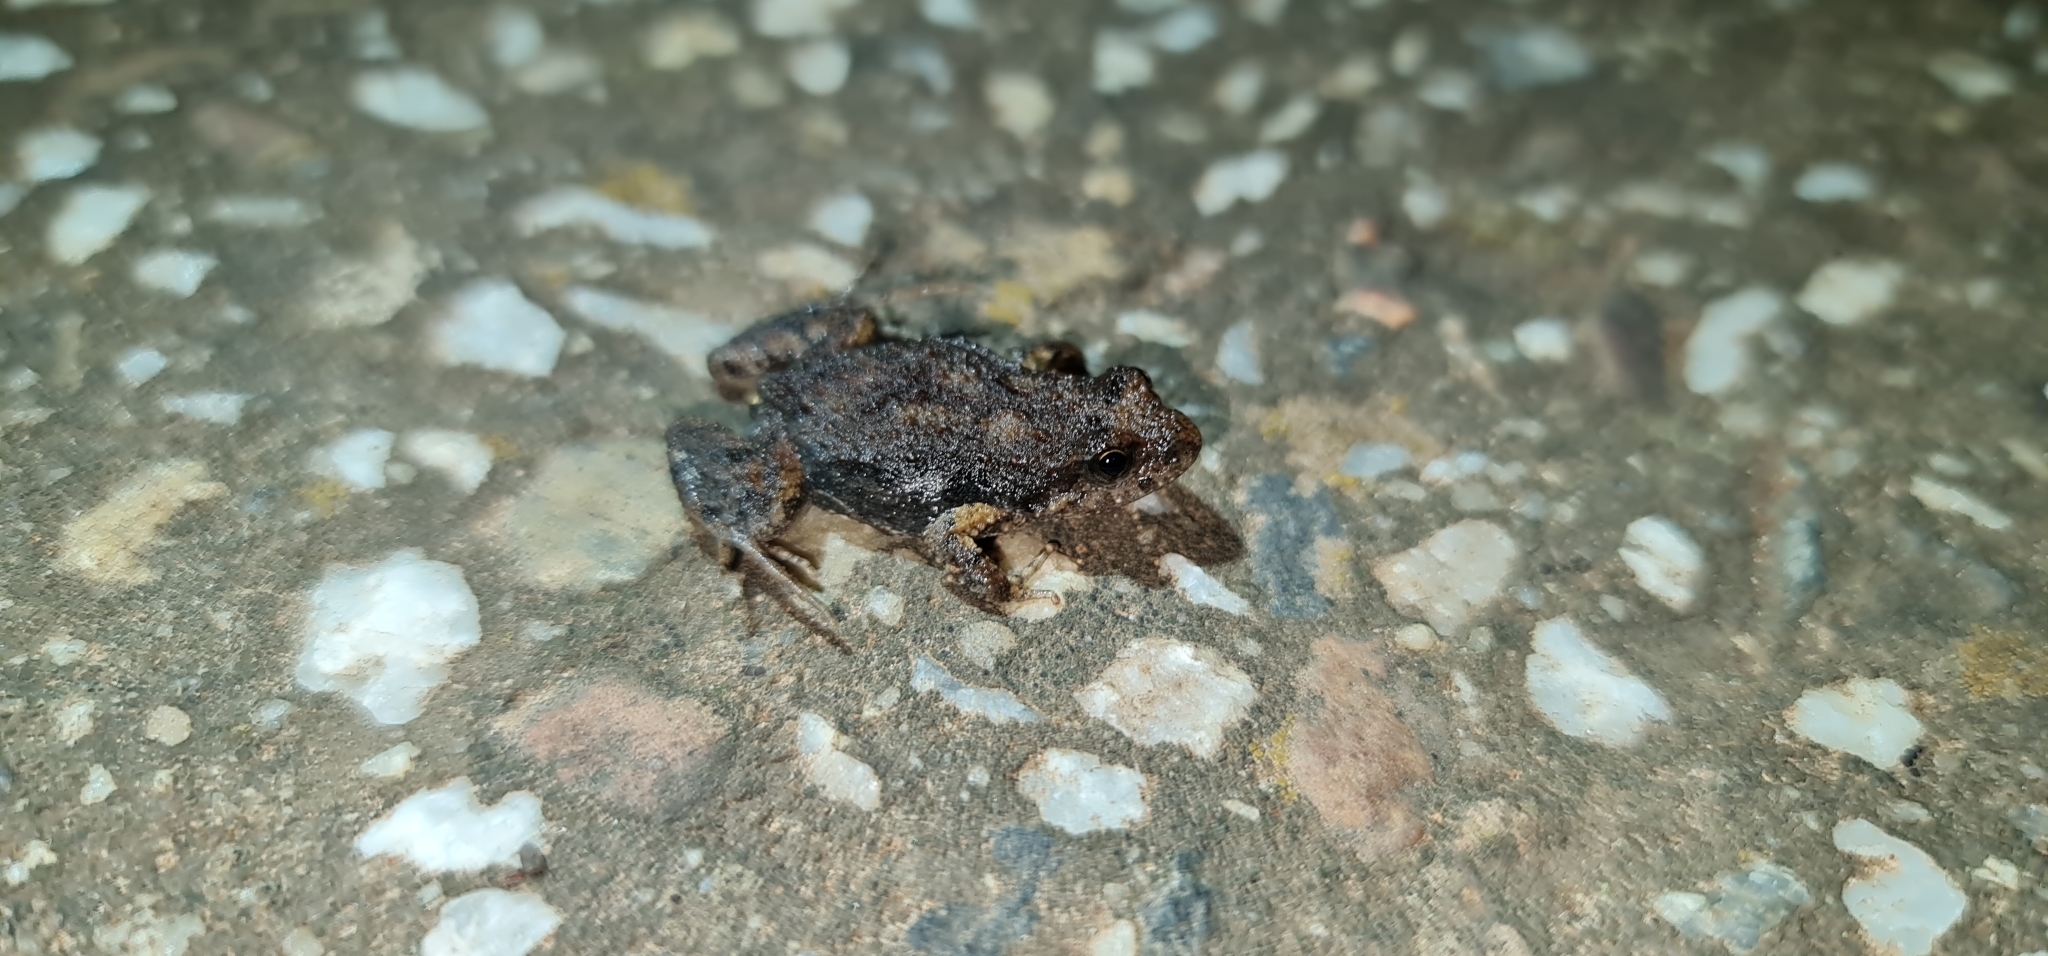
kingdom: Animalia
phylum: Chordata
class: Amphibia
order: Anura
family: Myobatrachidae
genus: Crinia
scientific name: Crinia signifera
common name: Brown froglet
